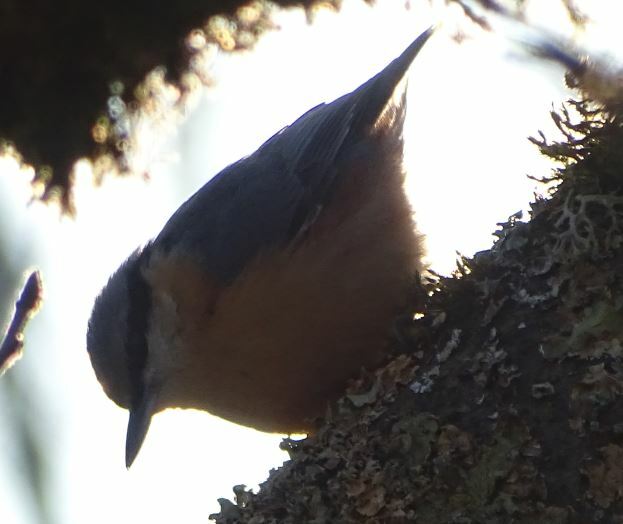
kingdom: Animalia
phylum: Chordata
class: Aves
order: Passeriformes
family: Sittidae
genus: Sitta
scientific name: Sitta europaea
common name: Eurasian nuthatch
